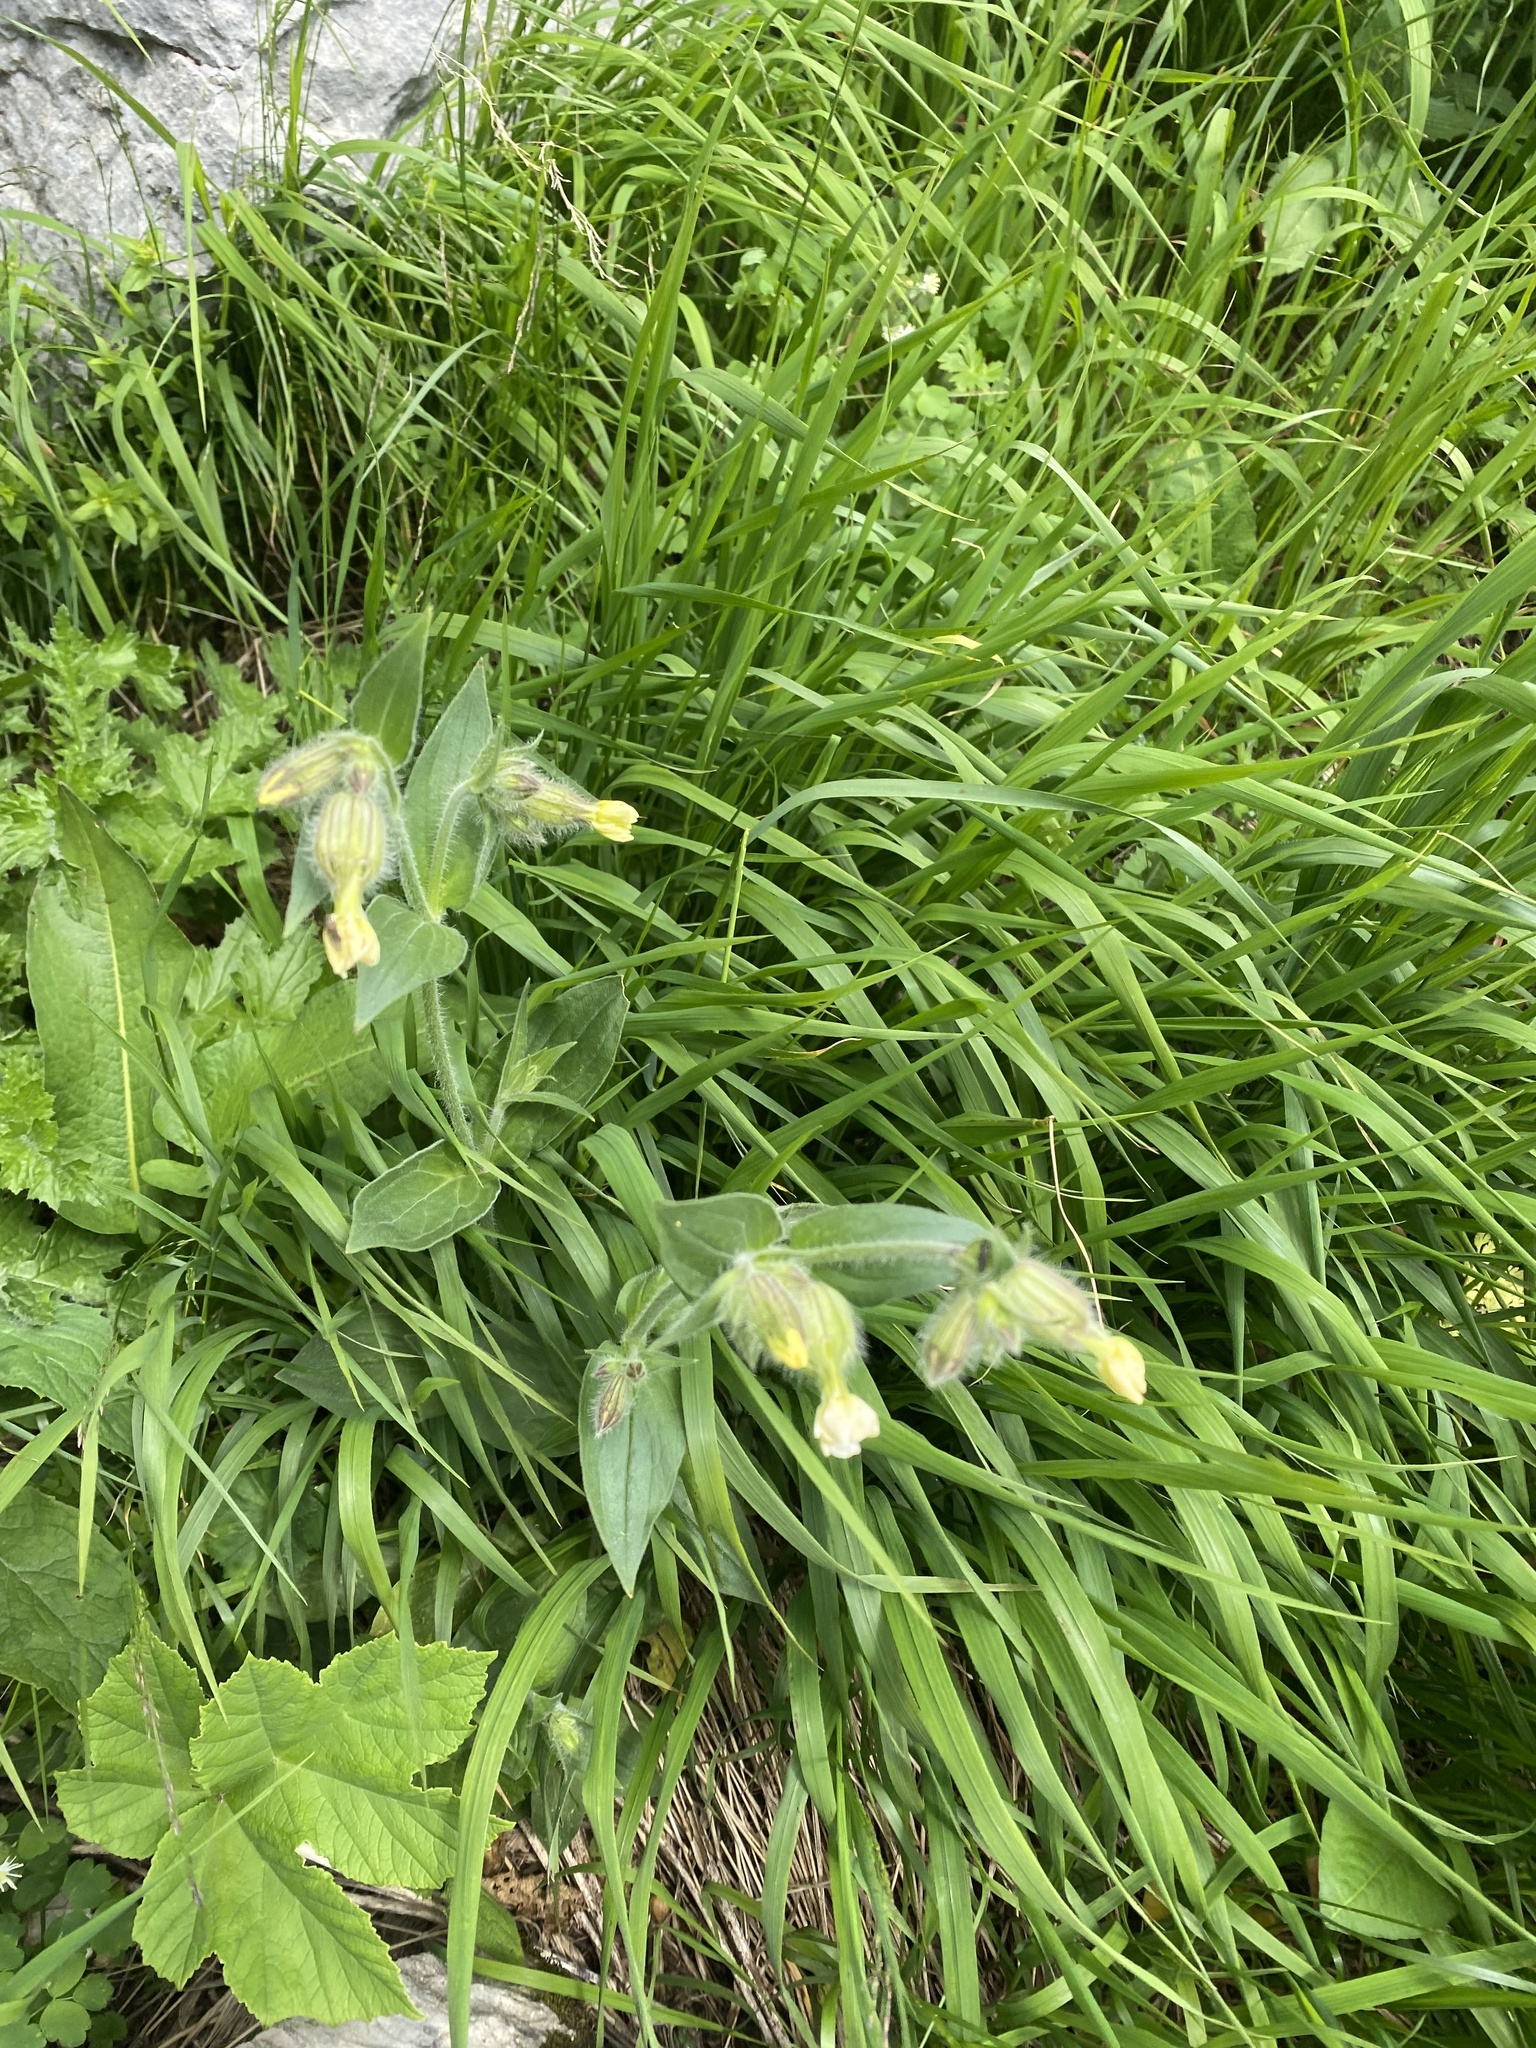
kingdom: Plantae
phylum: Tracheophyta
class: Magnoliopsida
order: Caryophyllales
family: Caryophyllaceae
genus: Silene
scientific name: Silene latifolia
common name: White campion
